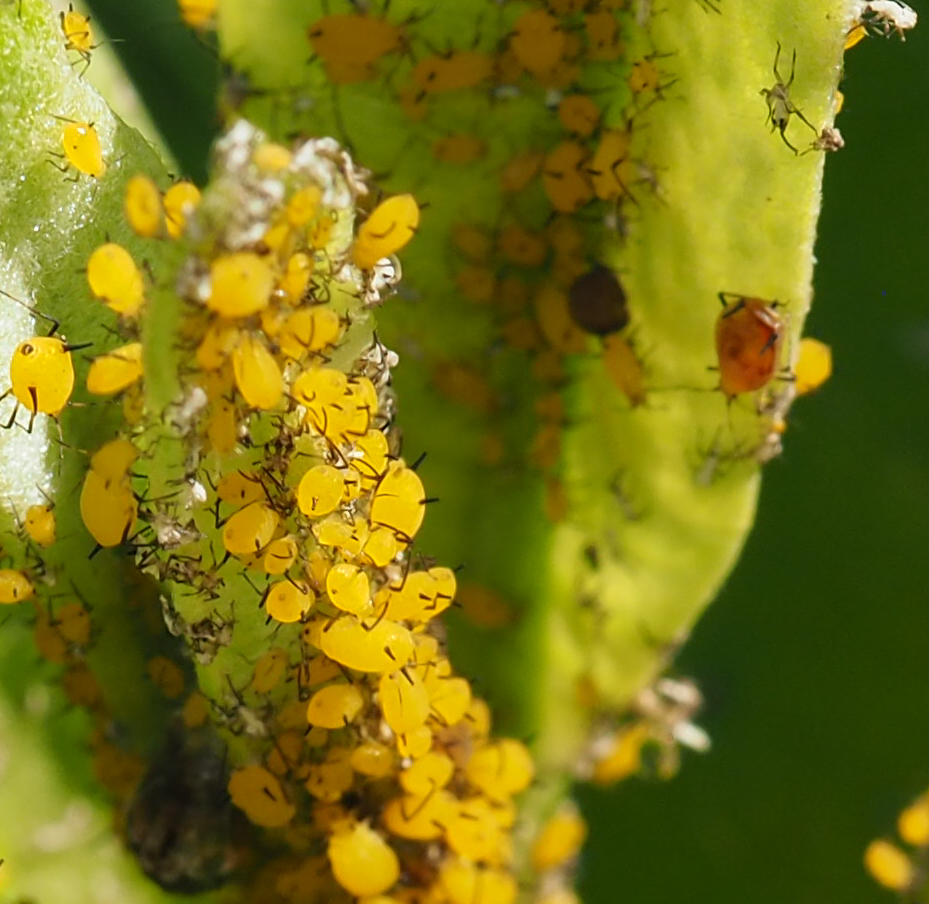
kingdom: Animalia
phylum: Arthropoda
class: Insecta
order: Hemiptera
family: Aphididae
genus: Aphis
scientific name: Aphis nerii
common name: Oleander aphid
